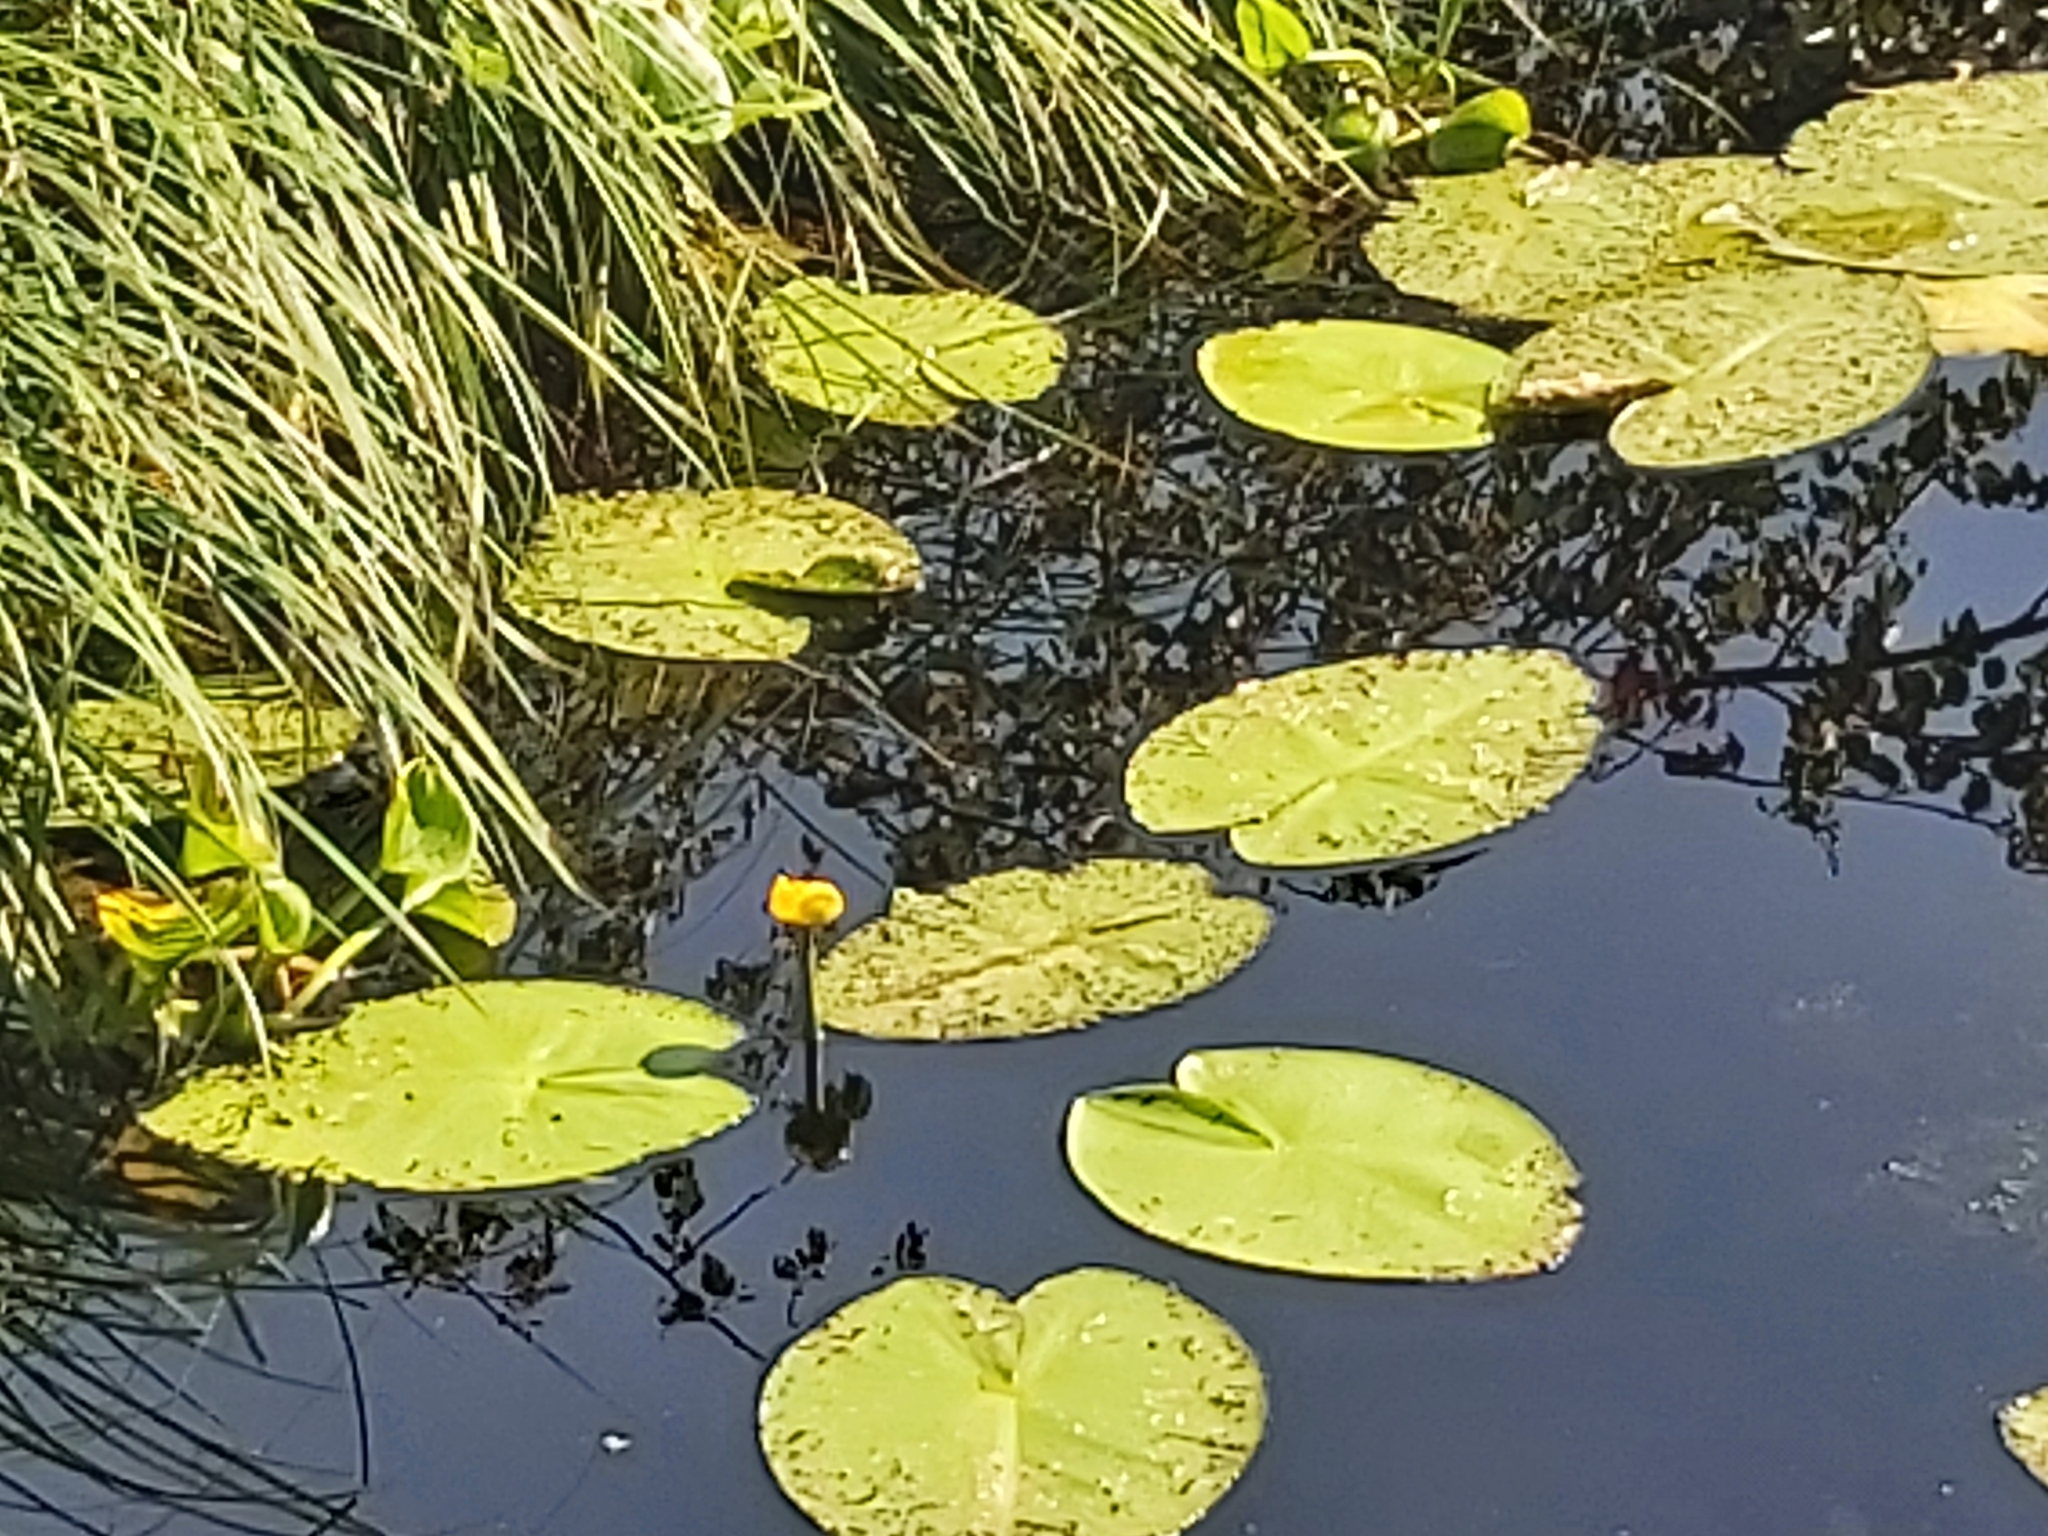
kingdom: Plantae
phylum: Tracheophyta
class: Magnoliopsida
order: Nymphaeales
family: Nymphaeaceae
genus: Nuphar
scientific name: Nuphar lutea
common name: Yellow water-lily
